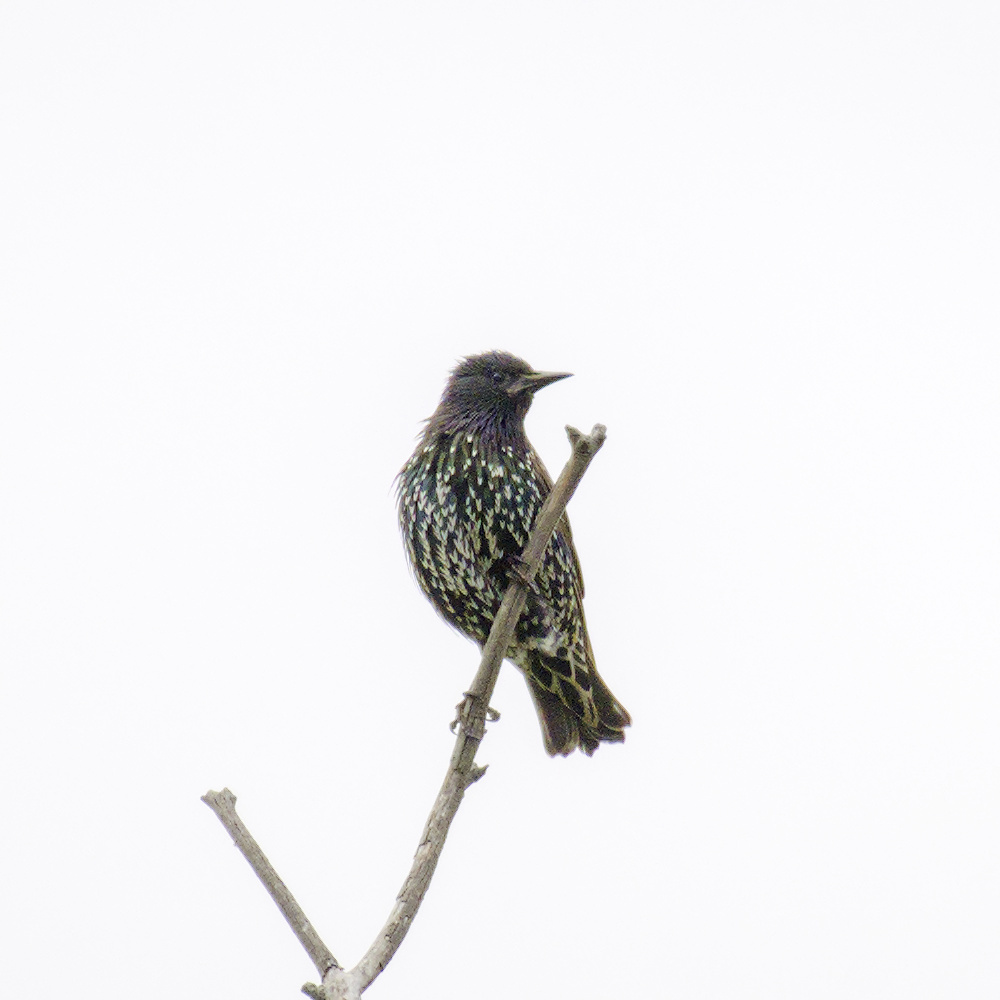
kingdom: Animalia
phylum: Chordata
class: Aves
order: Passeriformes
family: Sturnidae
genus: Sturnus
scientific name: Sturnus vulgaris
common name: Common starling
